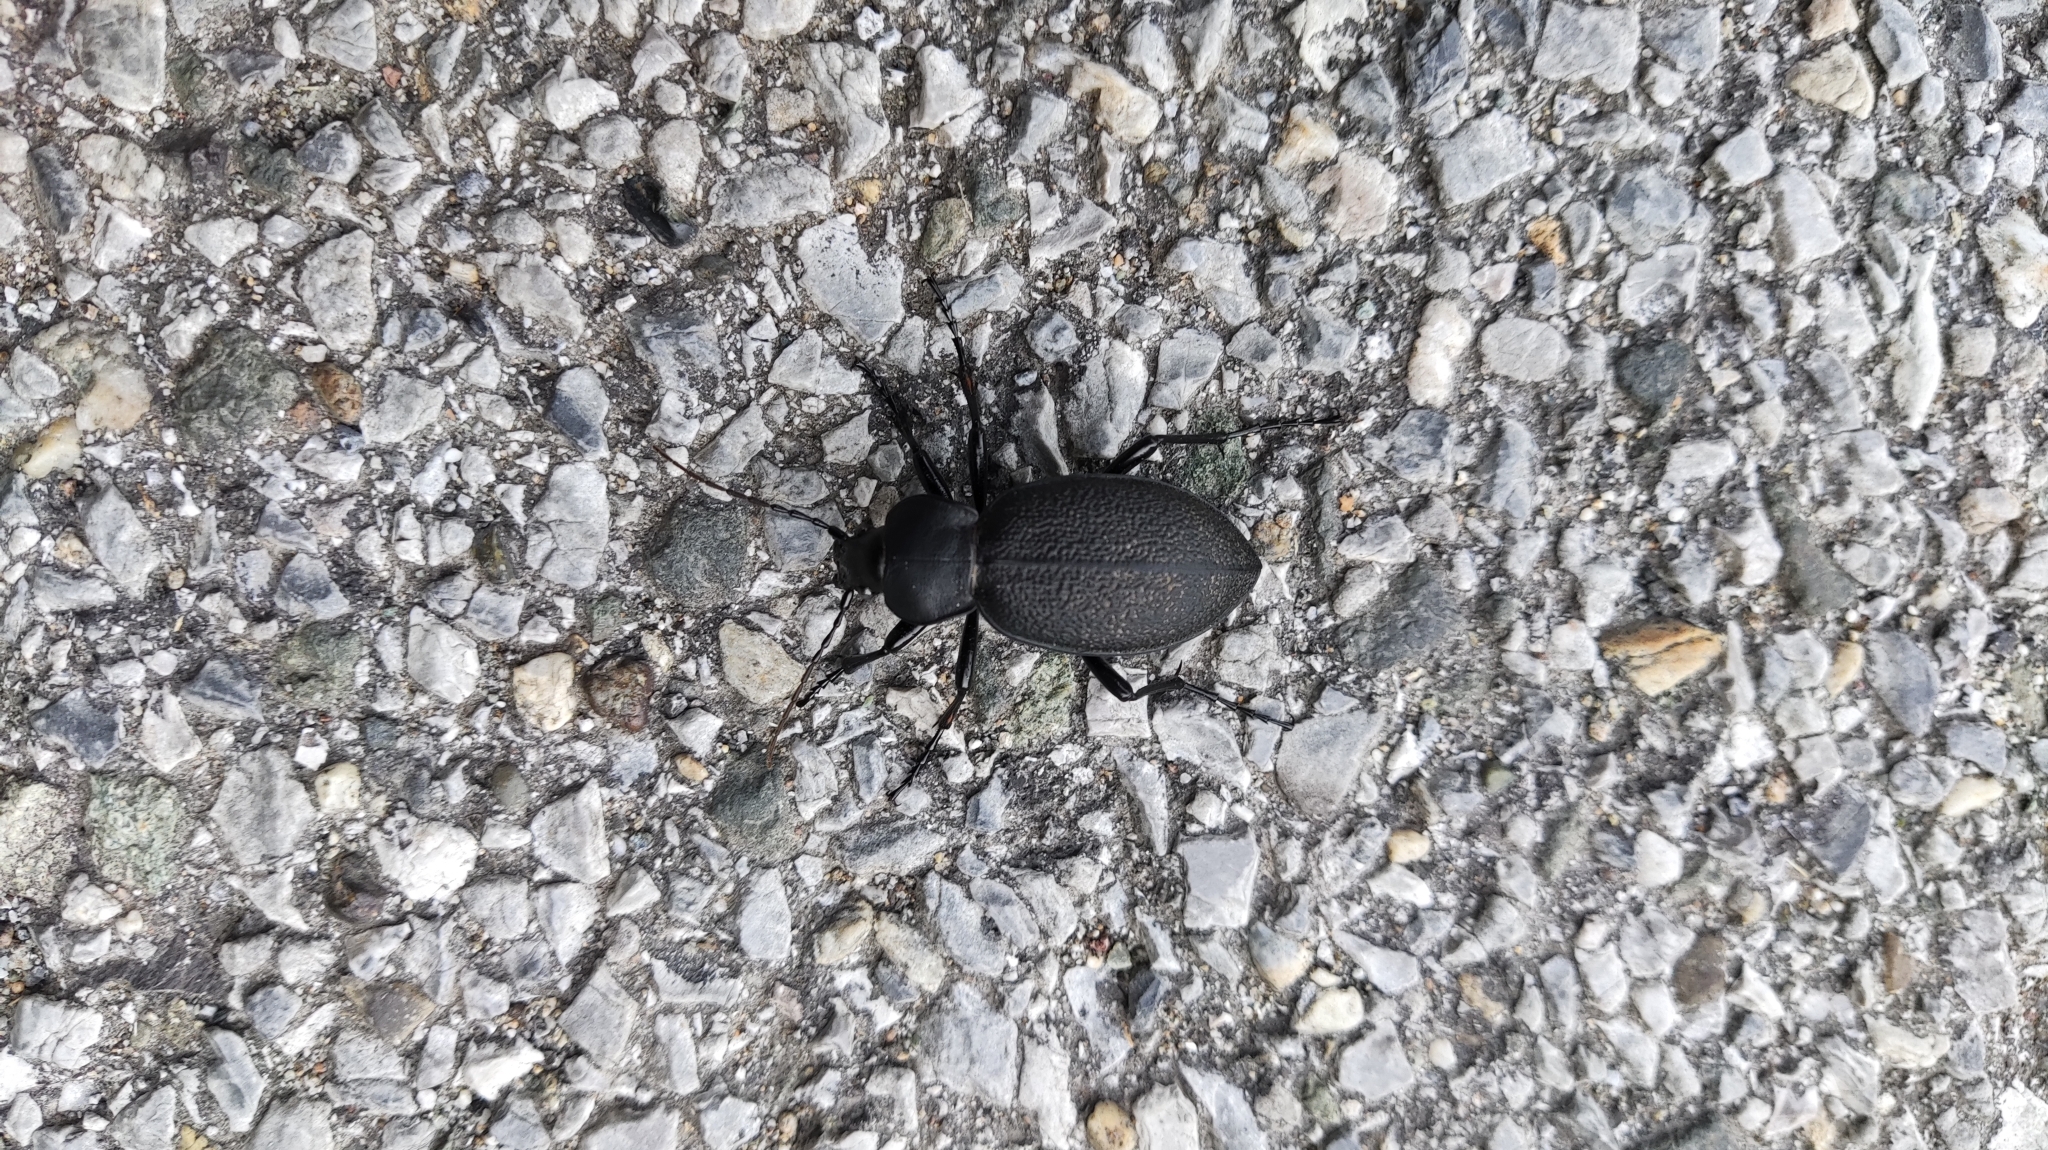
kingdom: Animalia
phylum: Arthropoda
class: Insecta
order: Coleoptera
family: Carabidae
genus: Carabus
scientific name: Carabus coriaceus
